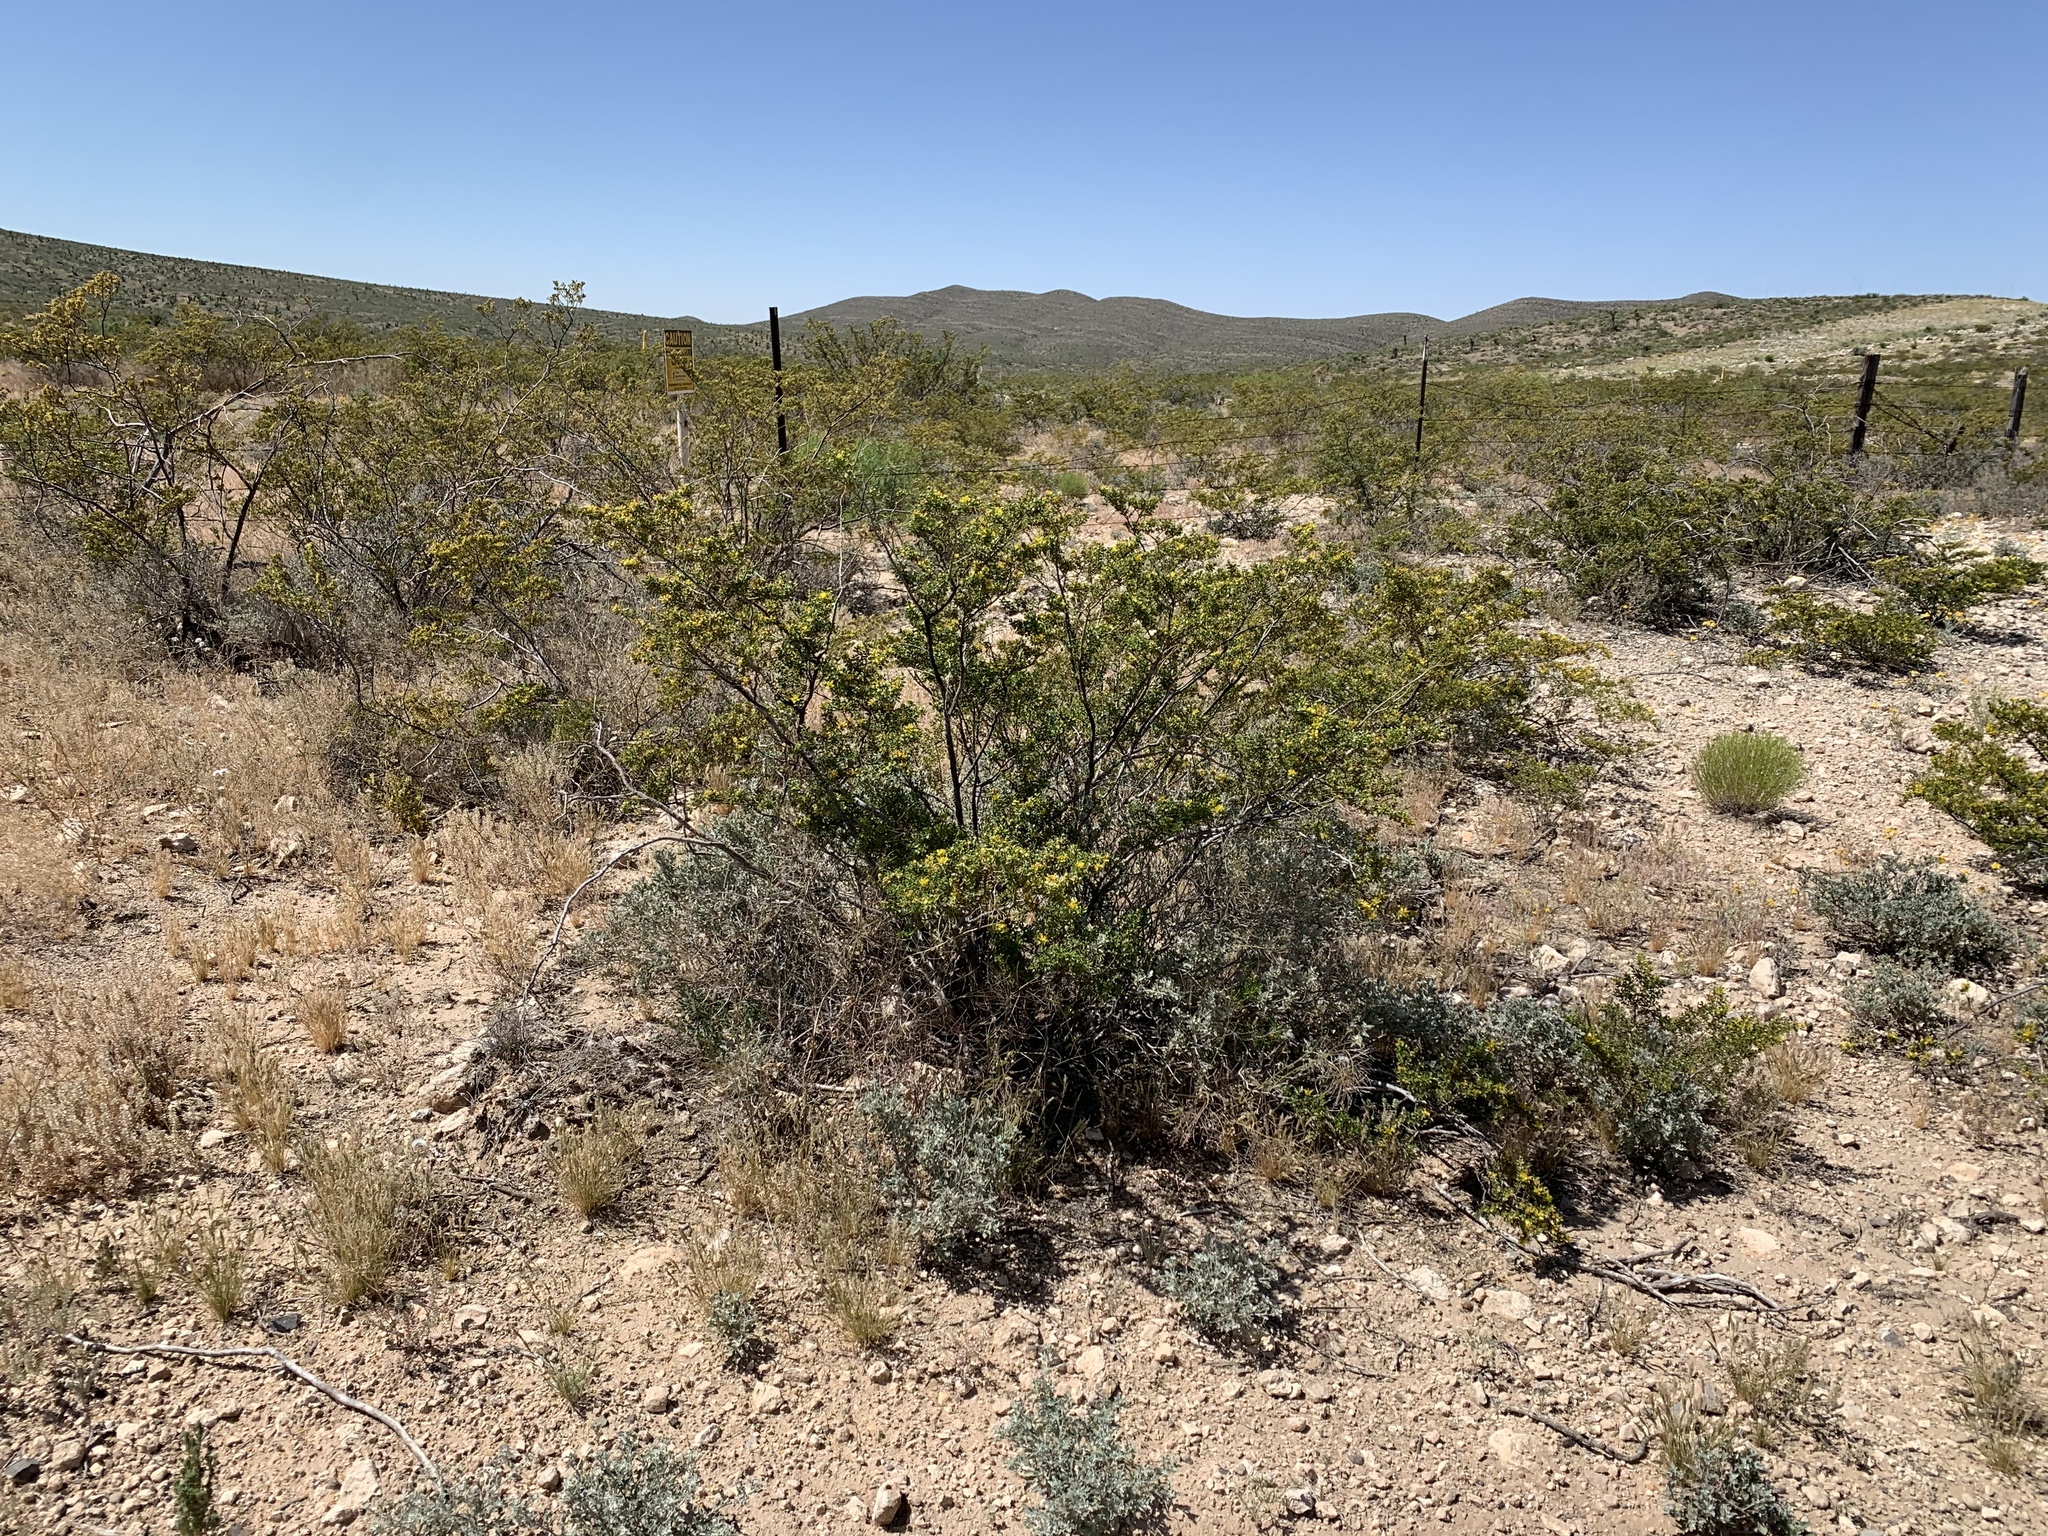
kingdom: Plantae
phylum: Tracheophyta
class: Magnoliopsida
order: Zygophyllales
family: Zygophyllaceae
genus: Larrea
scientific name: Larrea tridentata
